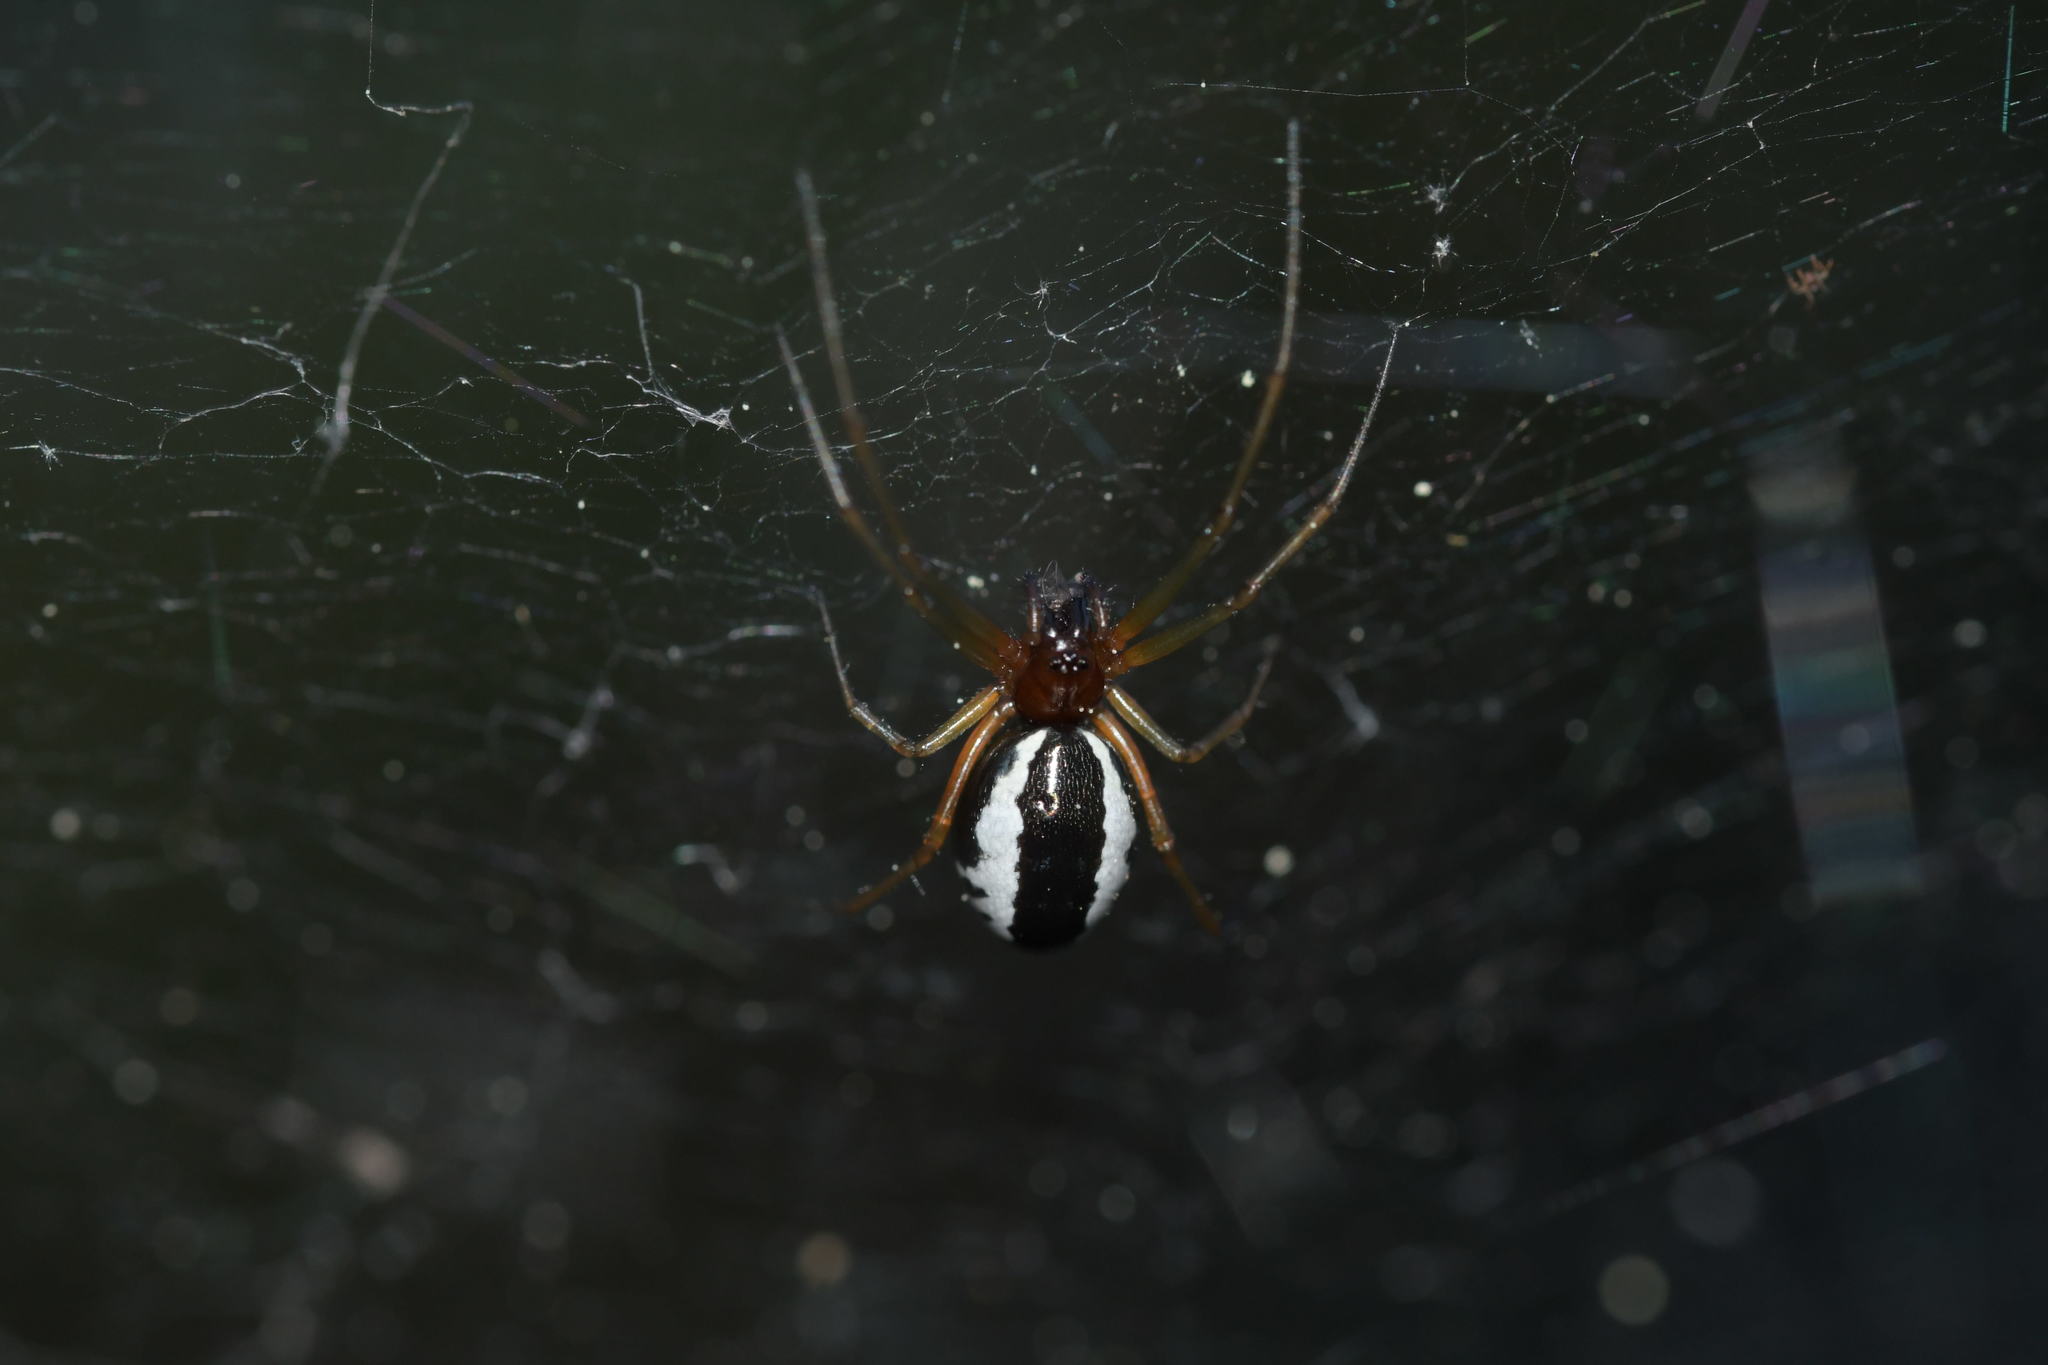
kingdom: Animalia
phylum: Arthropoda
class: Arachnida
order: Araneae
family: Linyphiidae
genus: Frontinellina
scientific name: Frontinellina frutetorum
